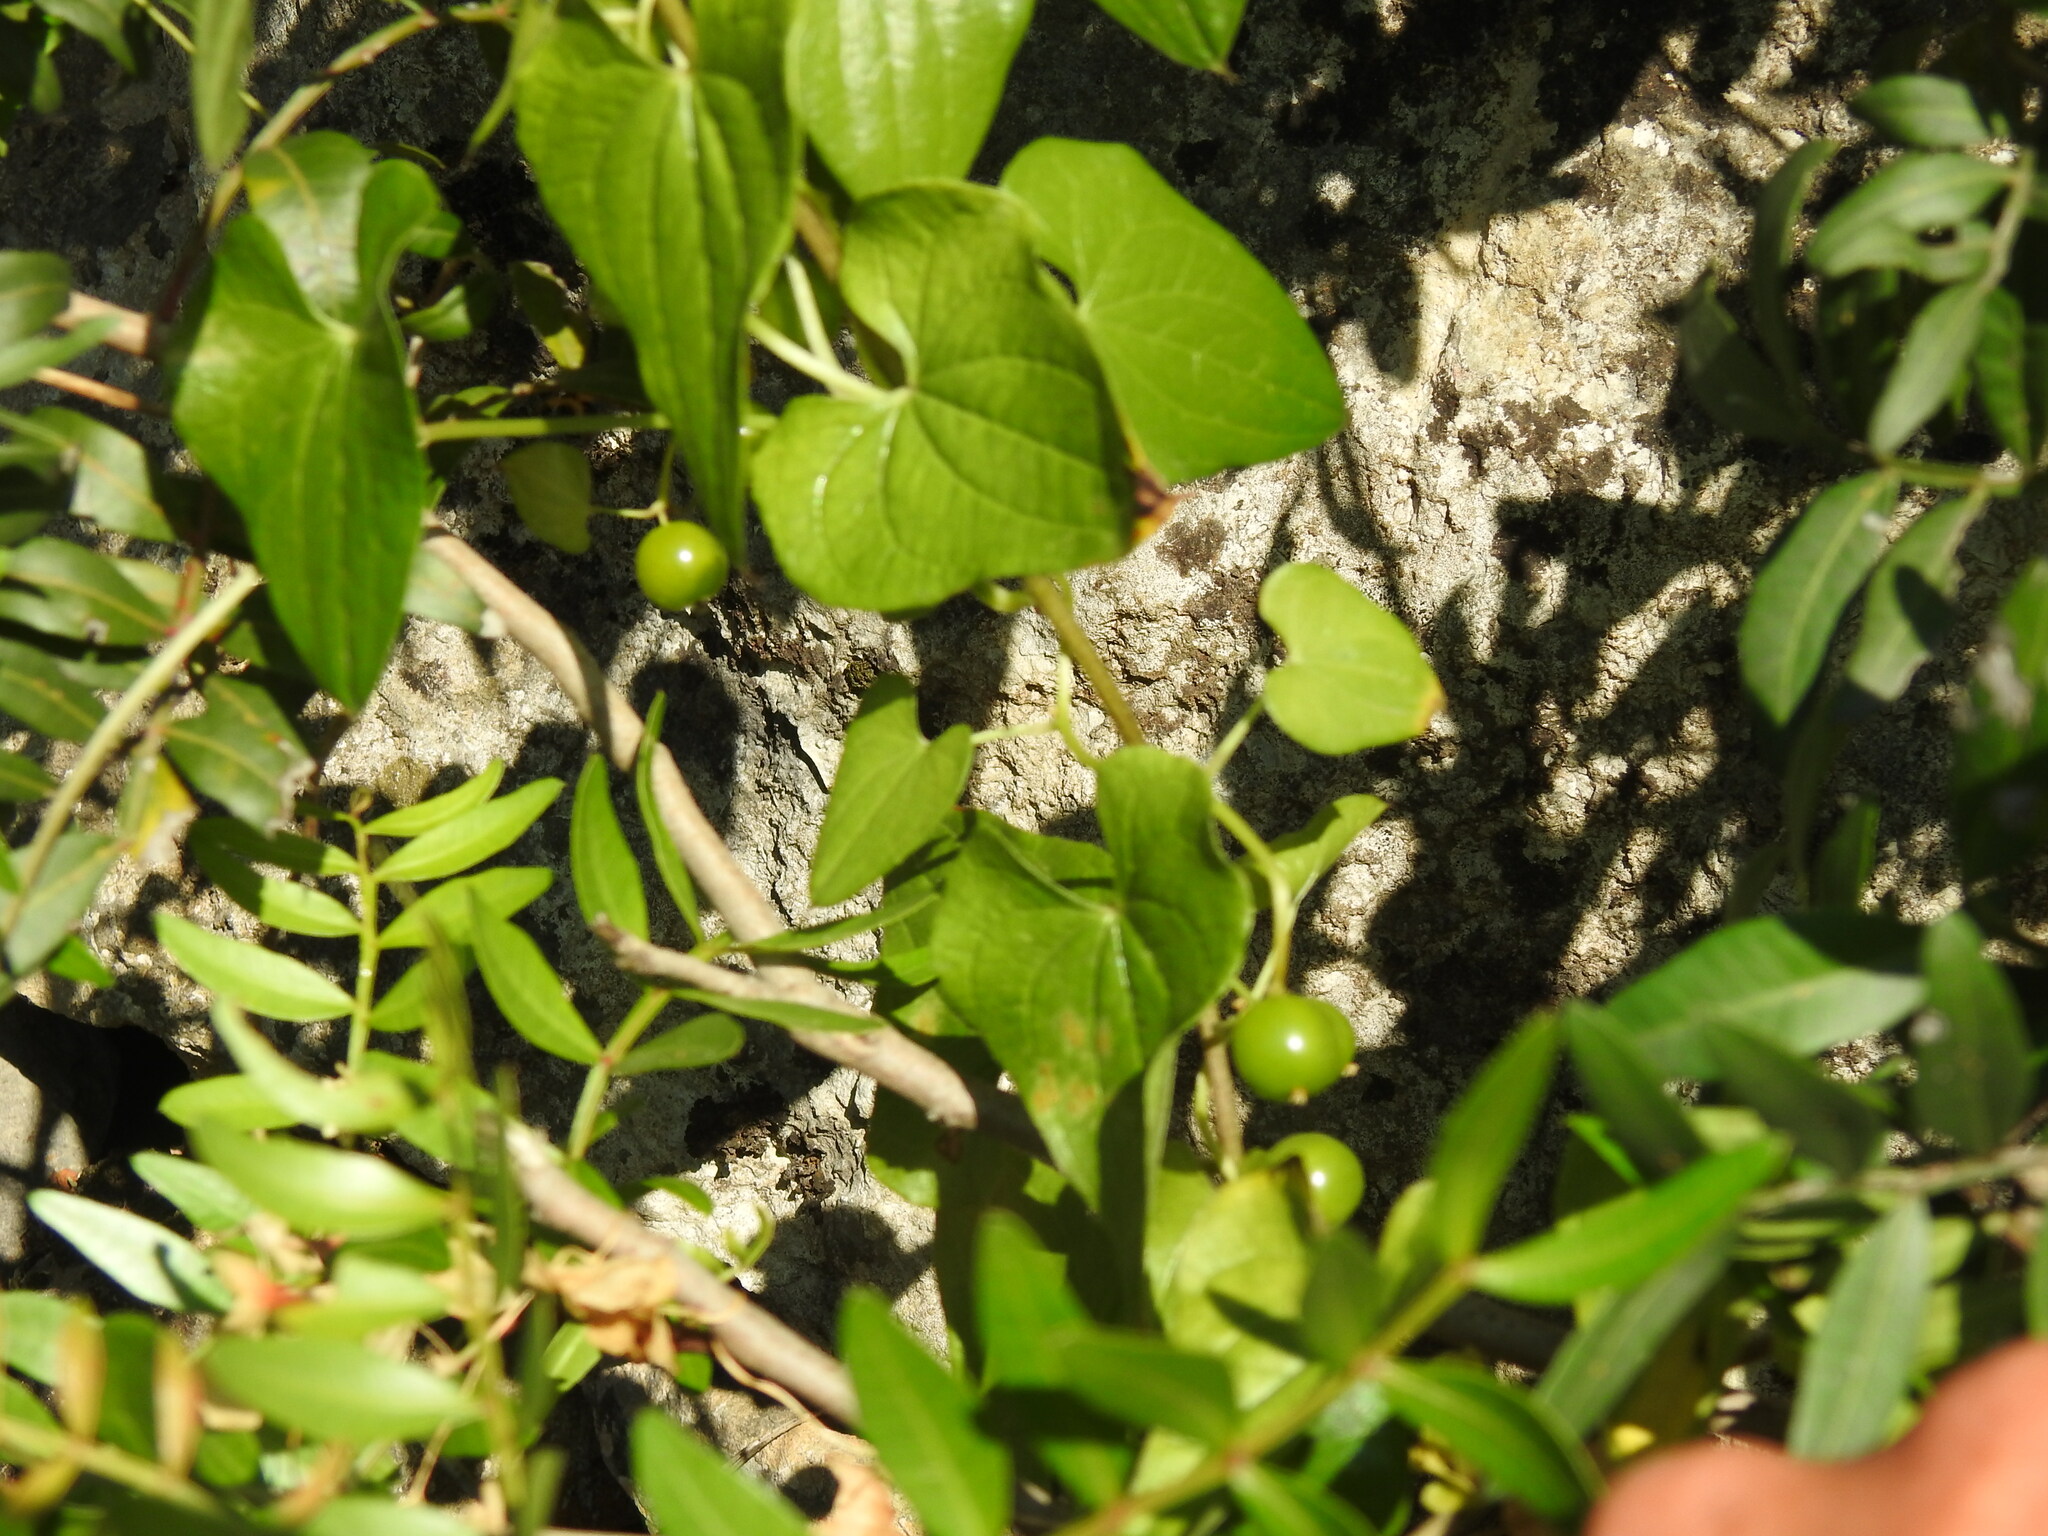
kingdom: Plantae
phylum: Tracheophyta
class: Liliopsida
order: Dioscoreales
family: Dioscoreaceae
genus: Dioscorea
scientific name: Dioscorea communis
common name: Black-bindweed
